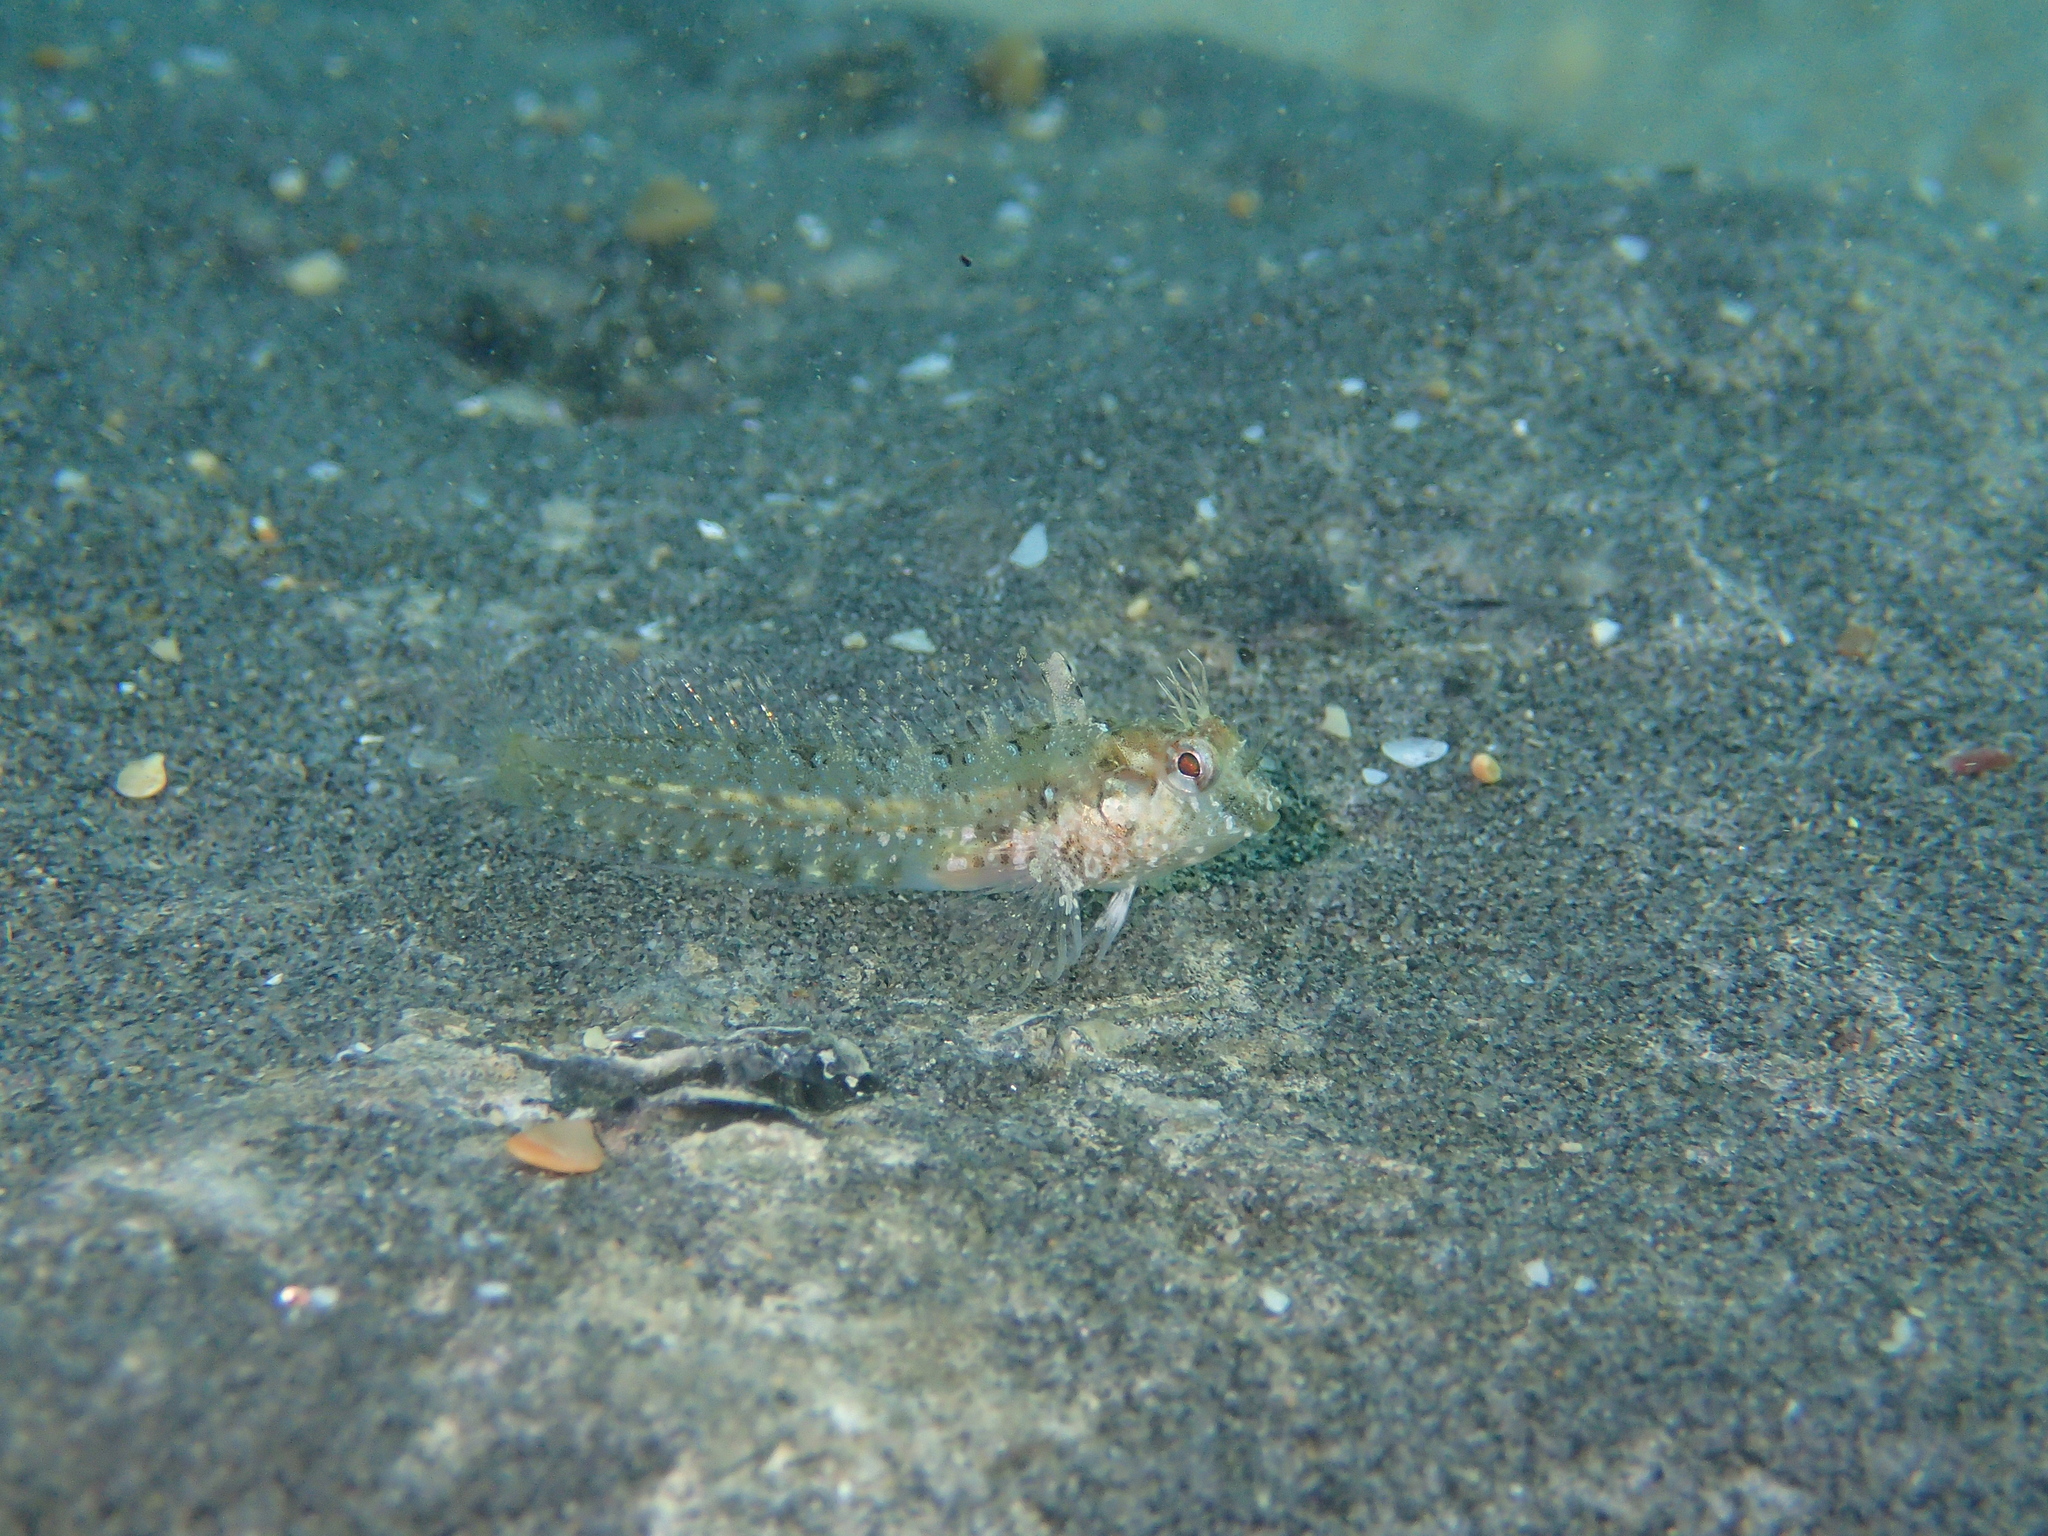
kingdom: Animalia
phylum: Chordata
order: Perciformes
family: Blenniidae
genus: Parablennius
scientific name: Parablennius incognitus
